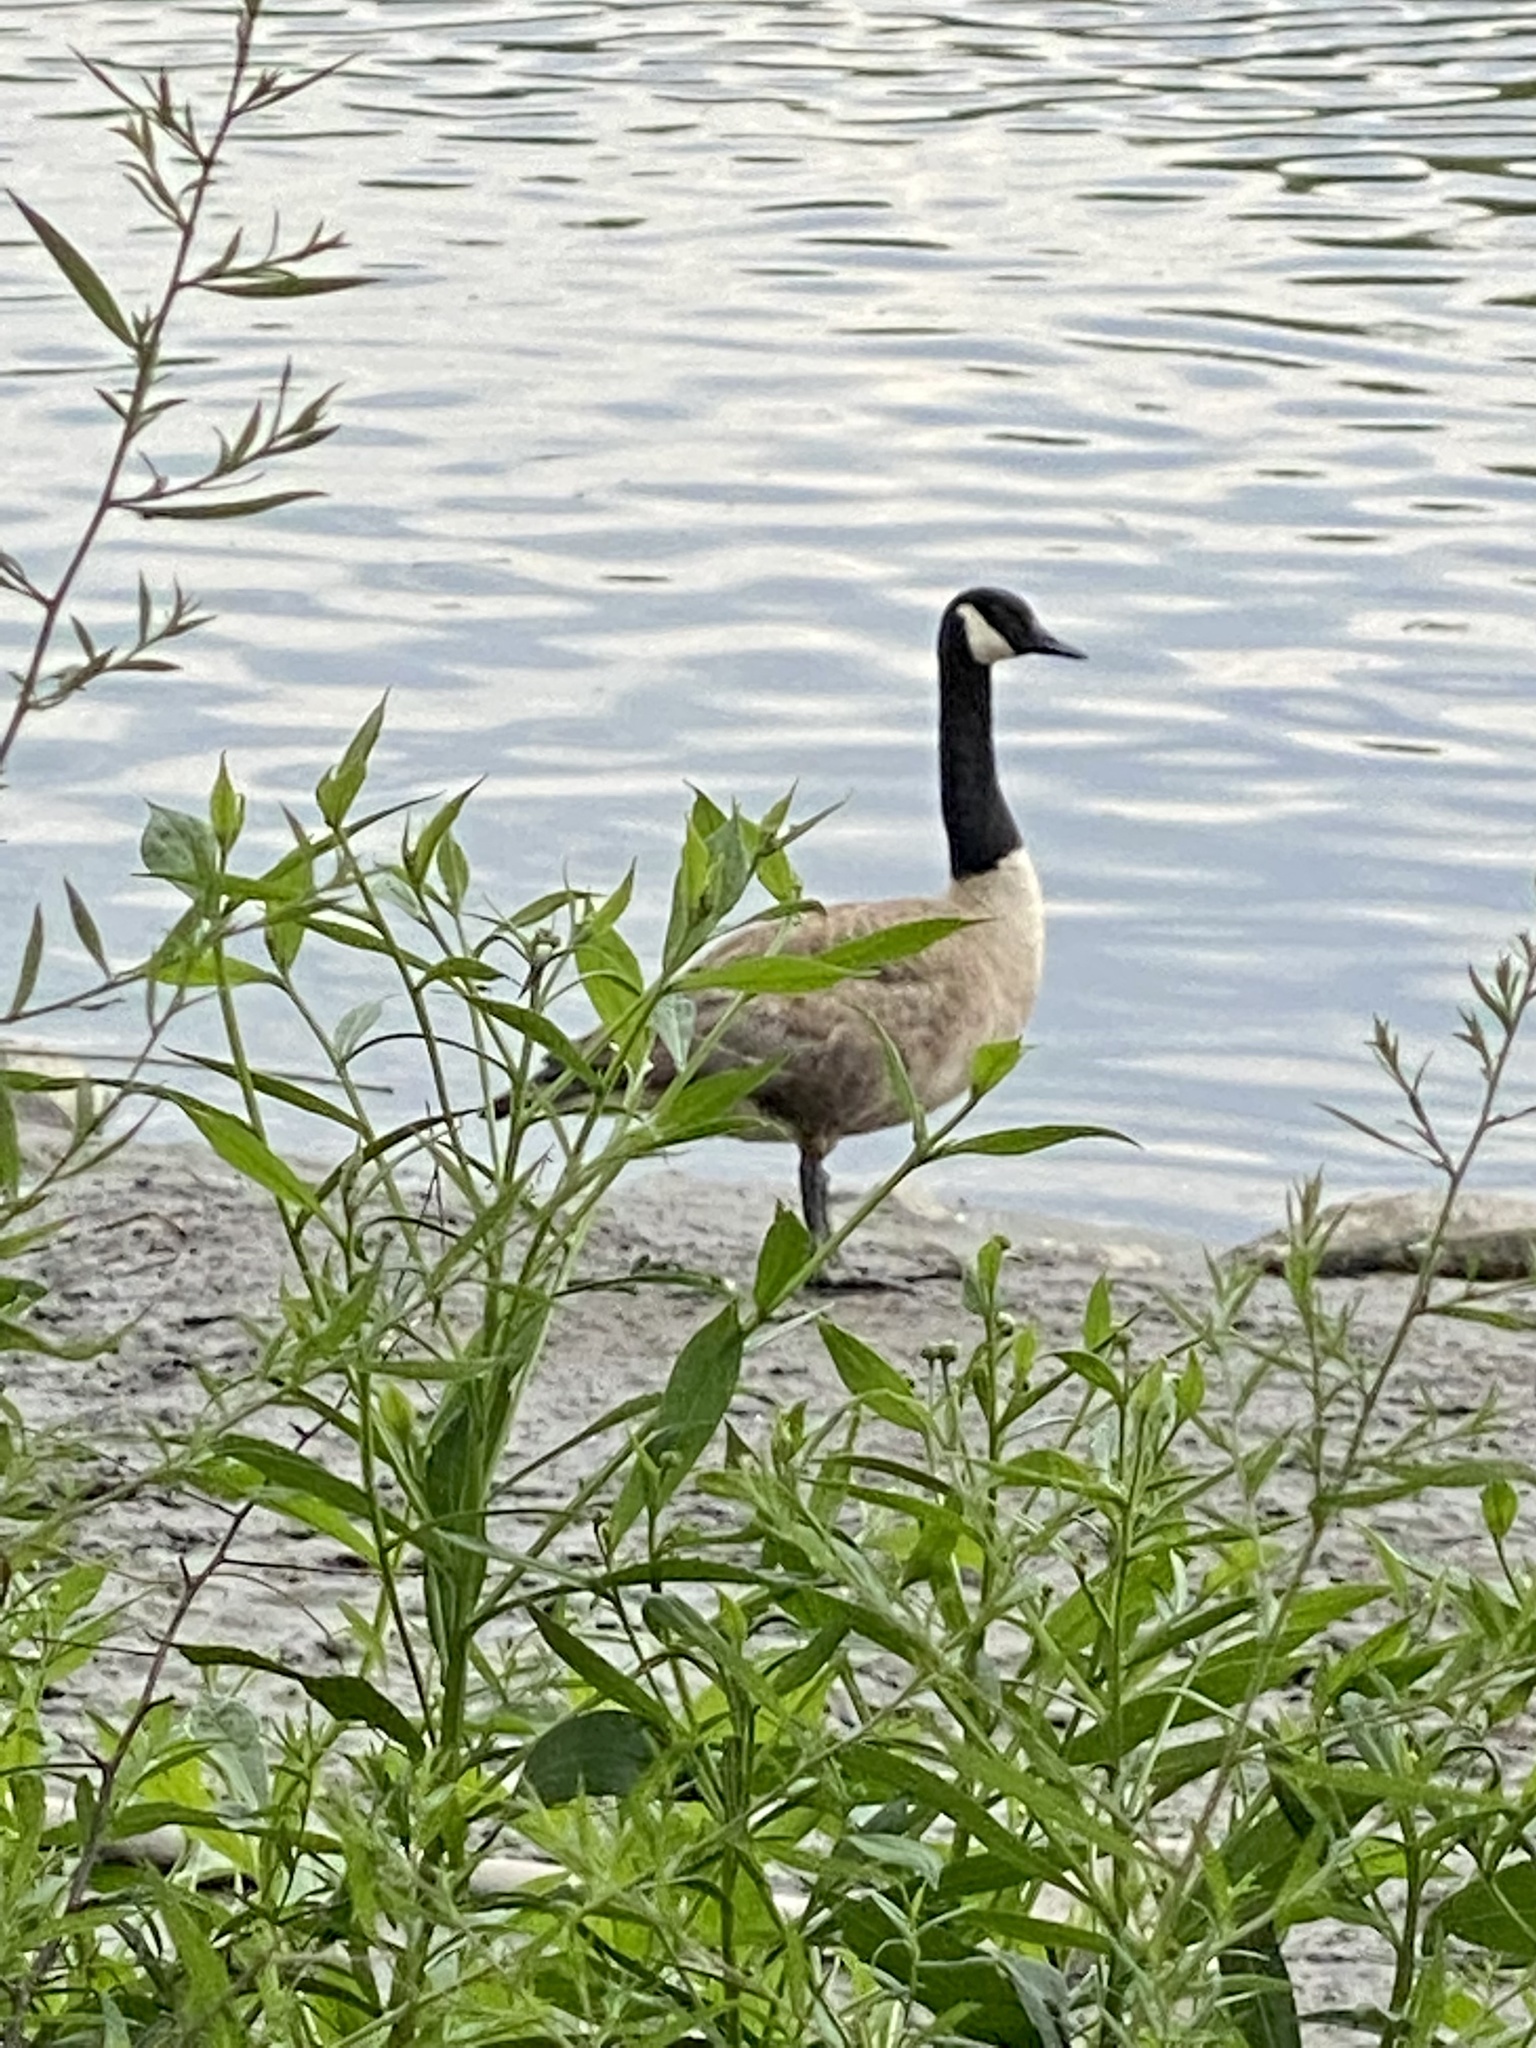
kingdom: Animalia
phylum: Chordata
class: Aves
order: Anseriformes
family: Anatidae
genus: Branta
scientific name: Branta canadensis
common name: Canada goose
